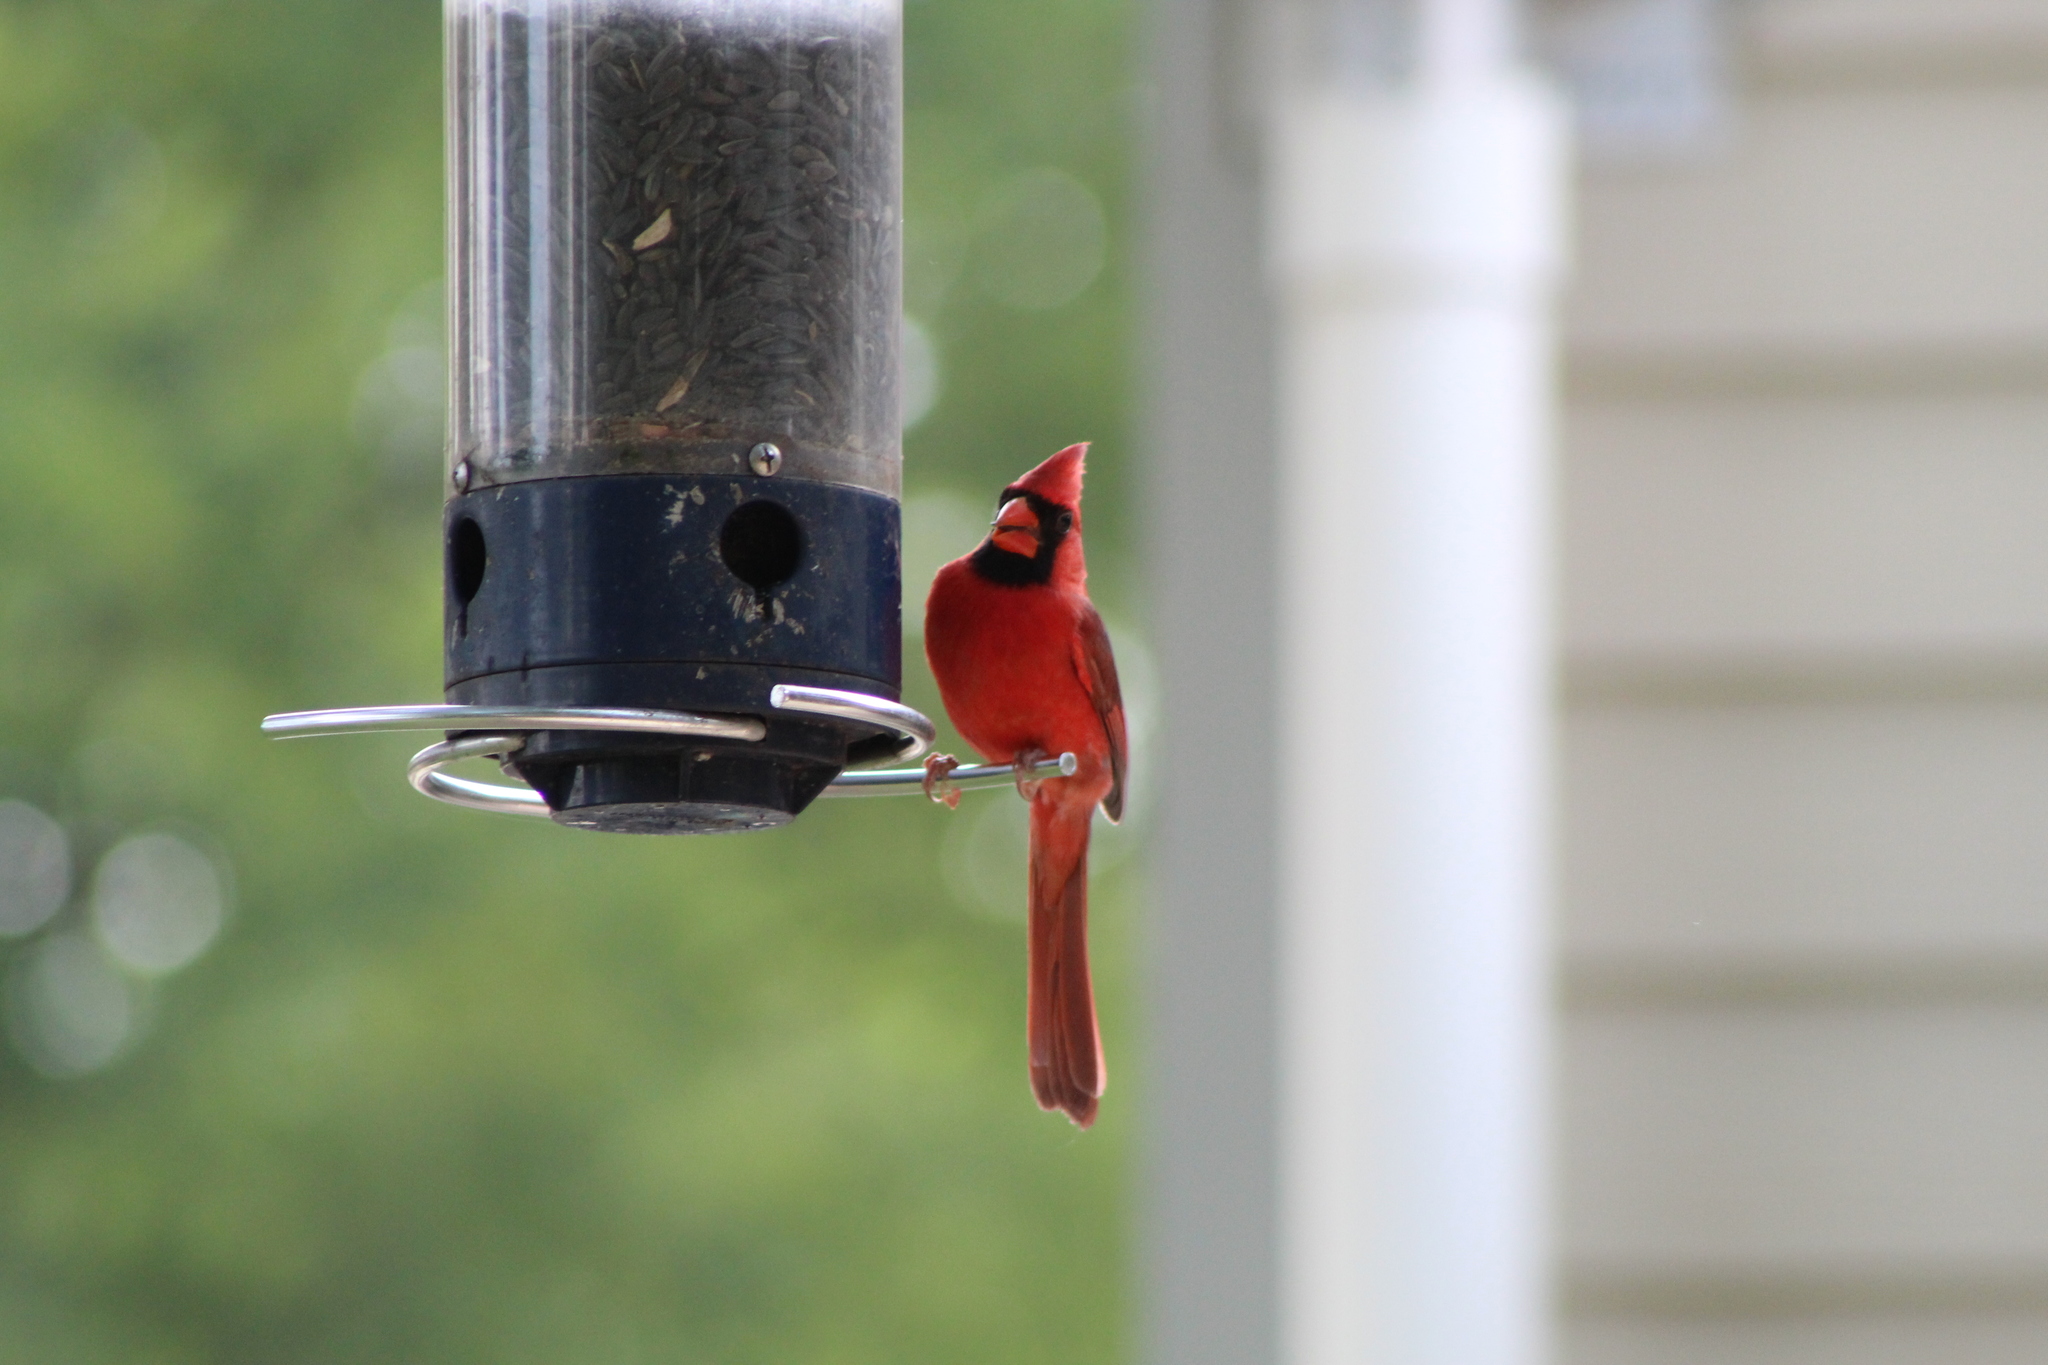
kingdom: Animalia
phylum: Chordata
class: Aves
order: Passeriformes
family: Cardinalidae
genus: Cardinalis
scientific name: Cardinalis cardinalis
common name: Northern cardinal
